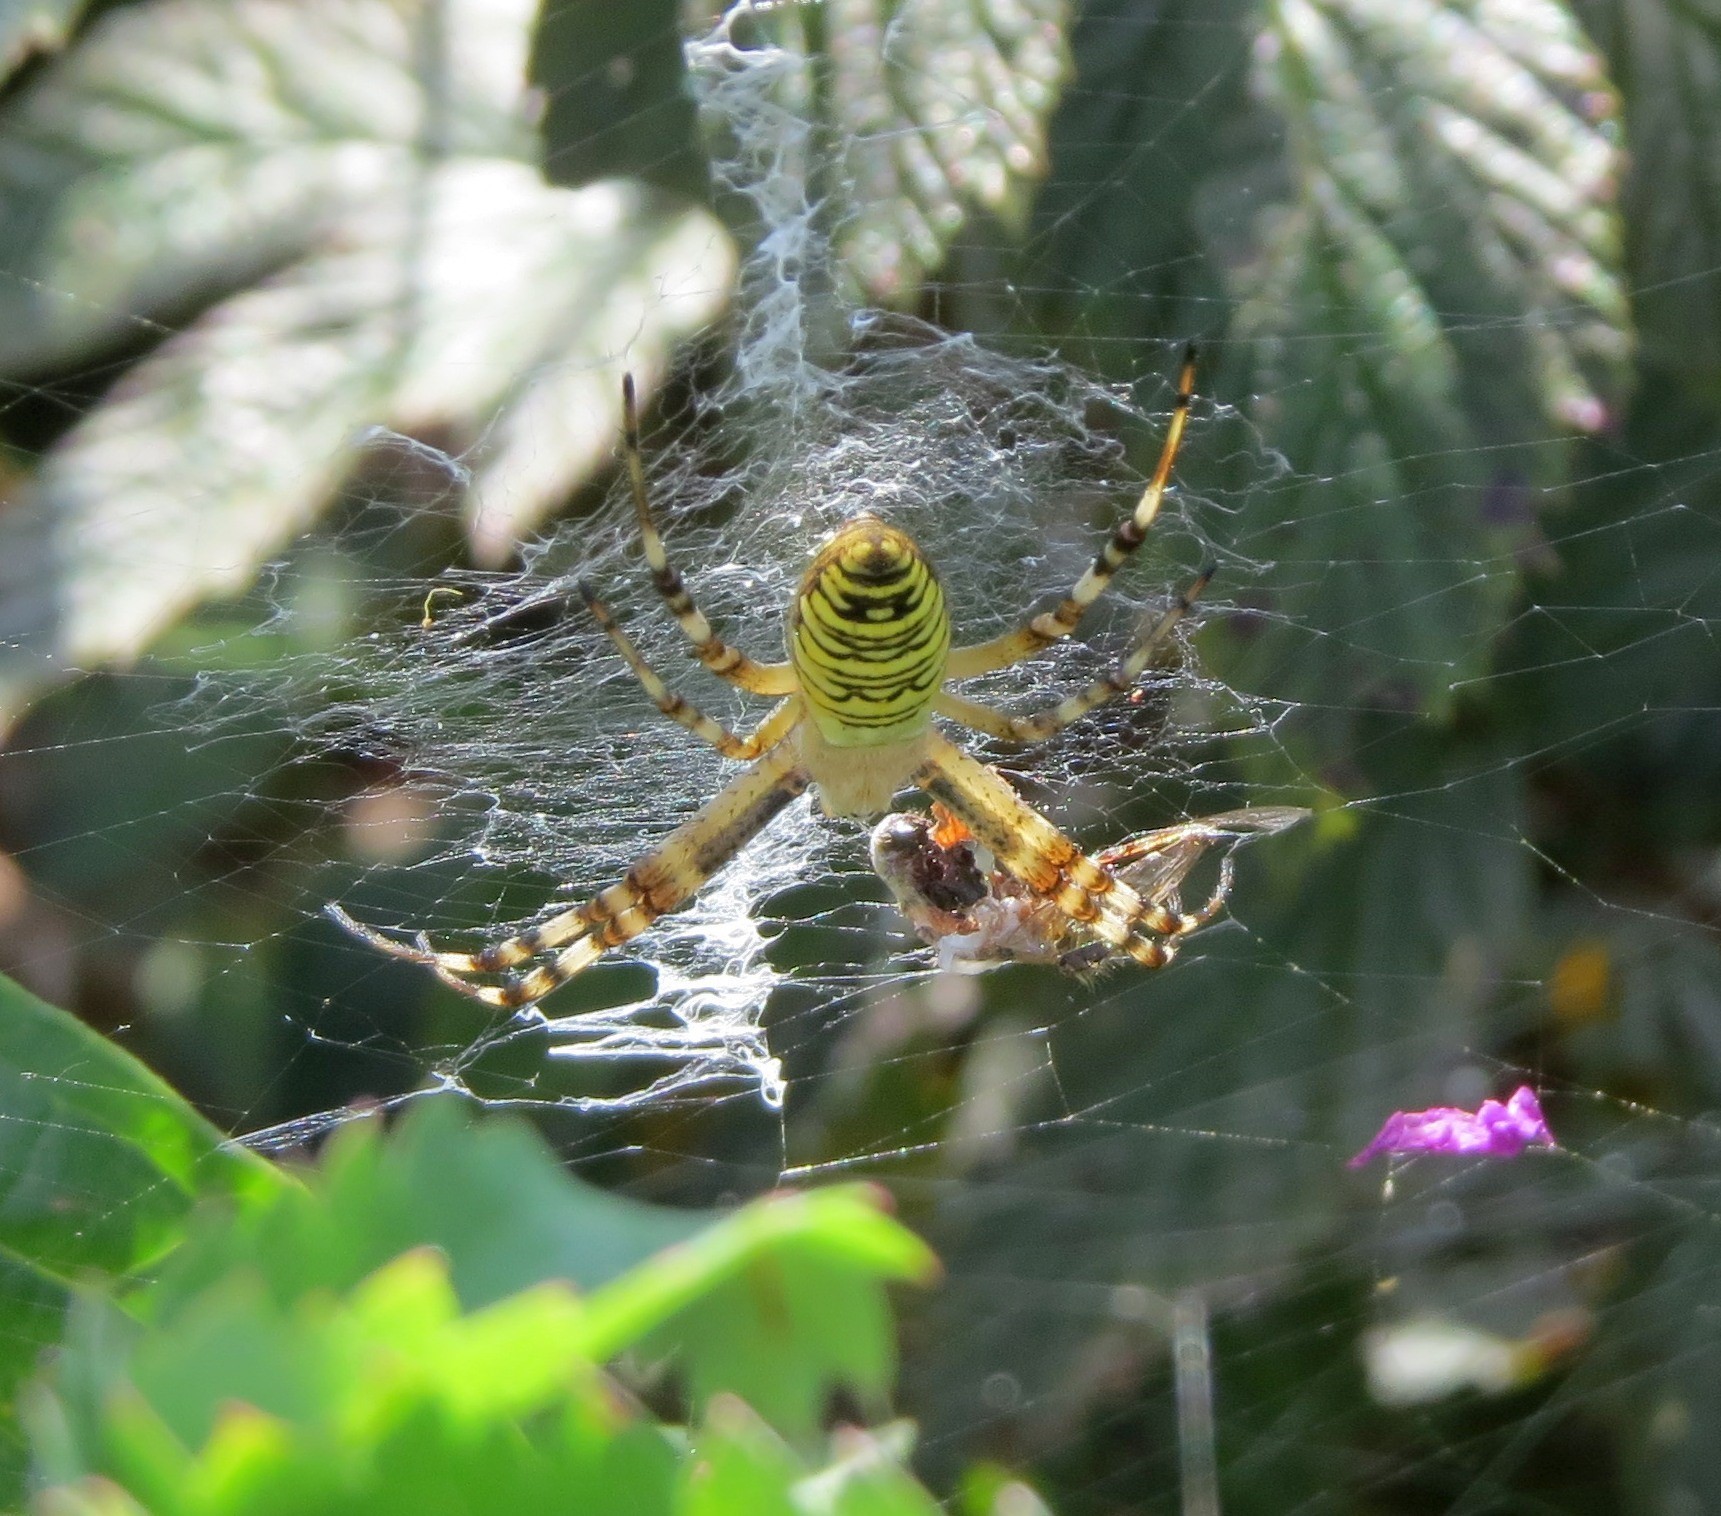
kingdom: Animalia
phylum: Arthropoda
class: Arachnida
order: Araneae
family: Araneidae
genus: Argiope
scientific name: Argiope bruennichi
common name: Wasp spider
